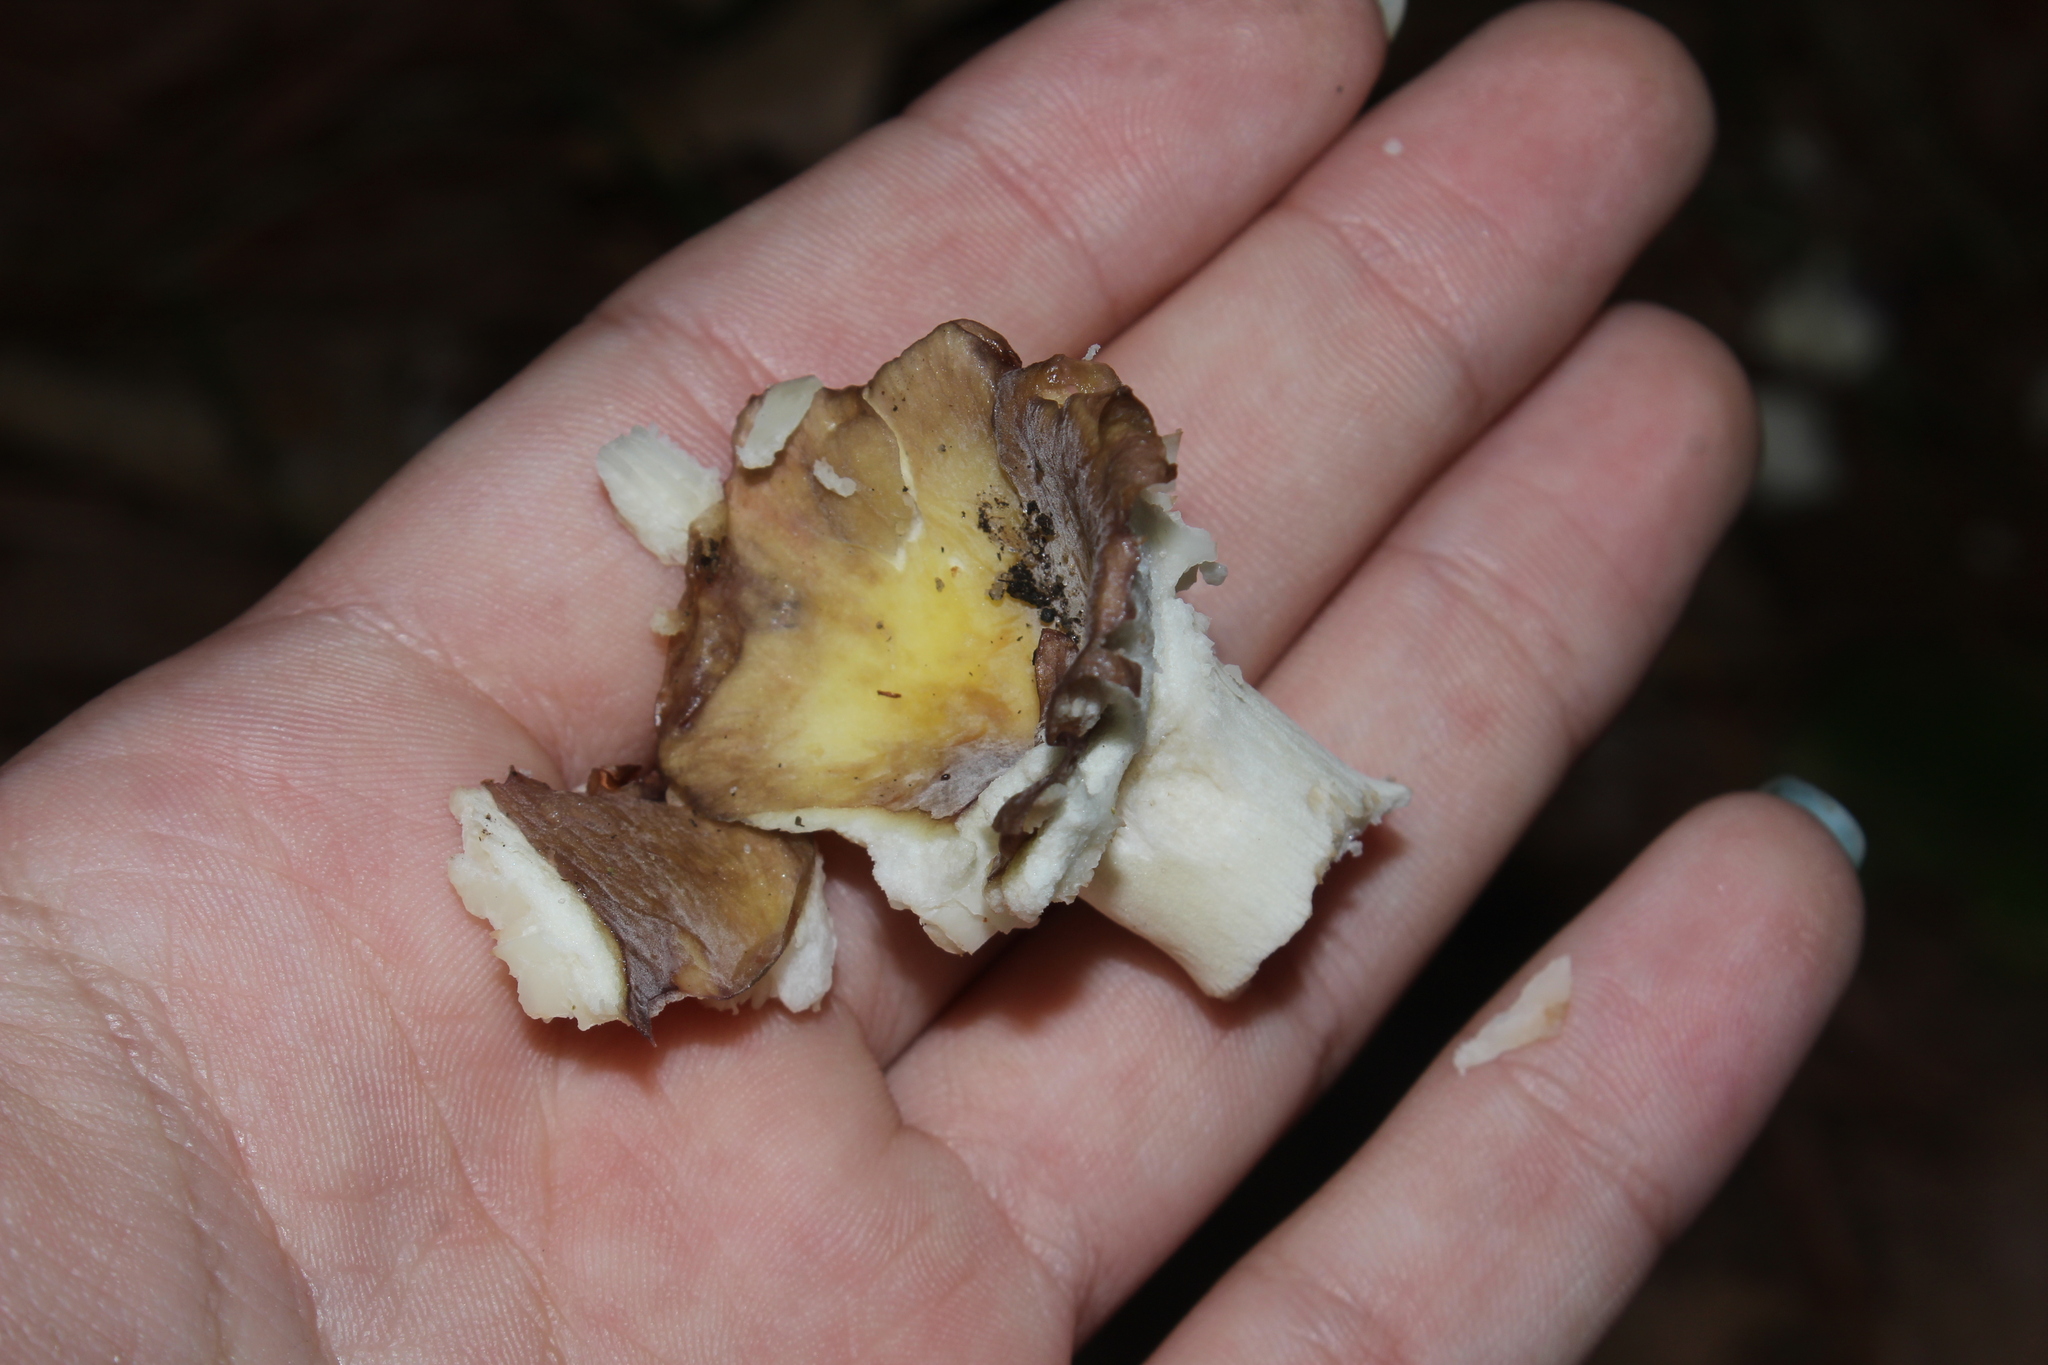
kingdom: Fungi
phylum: Basidiomycota
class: Agaricomycetes
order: Russulales
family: Russulaceae
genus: Russula
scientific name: Russula
